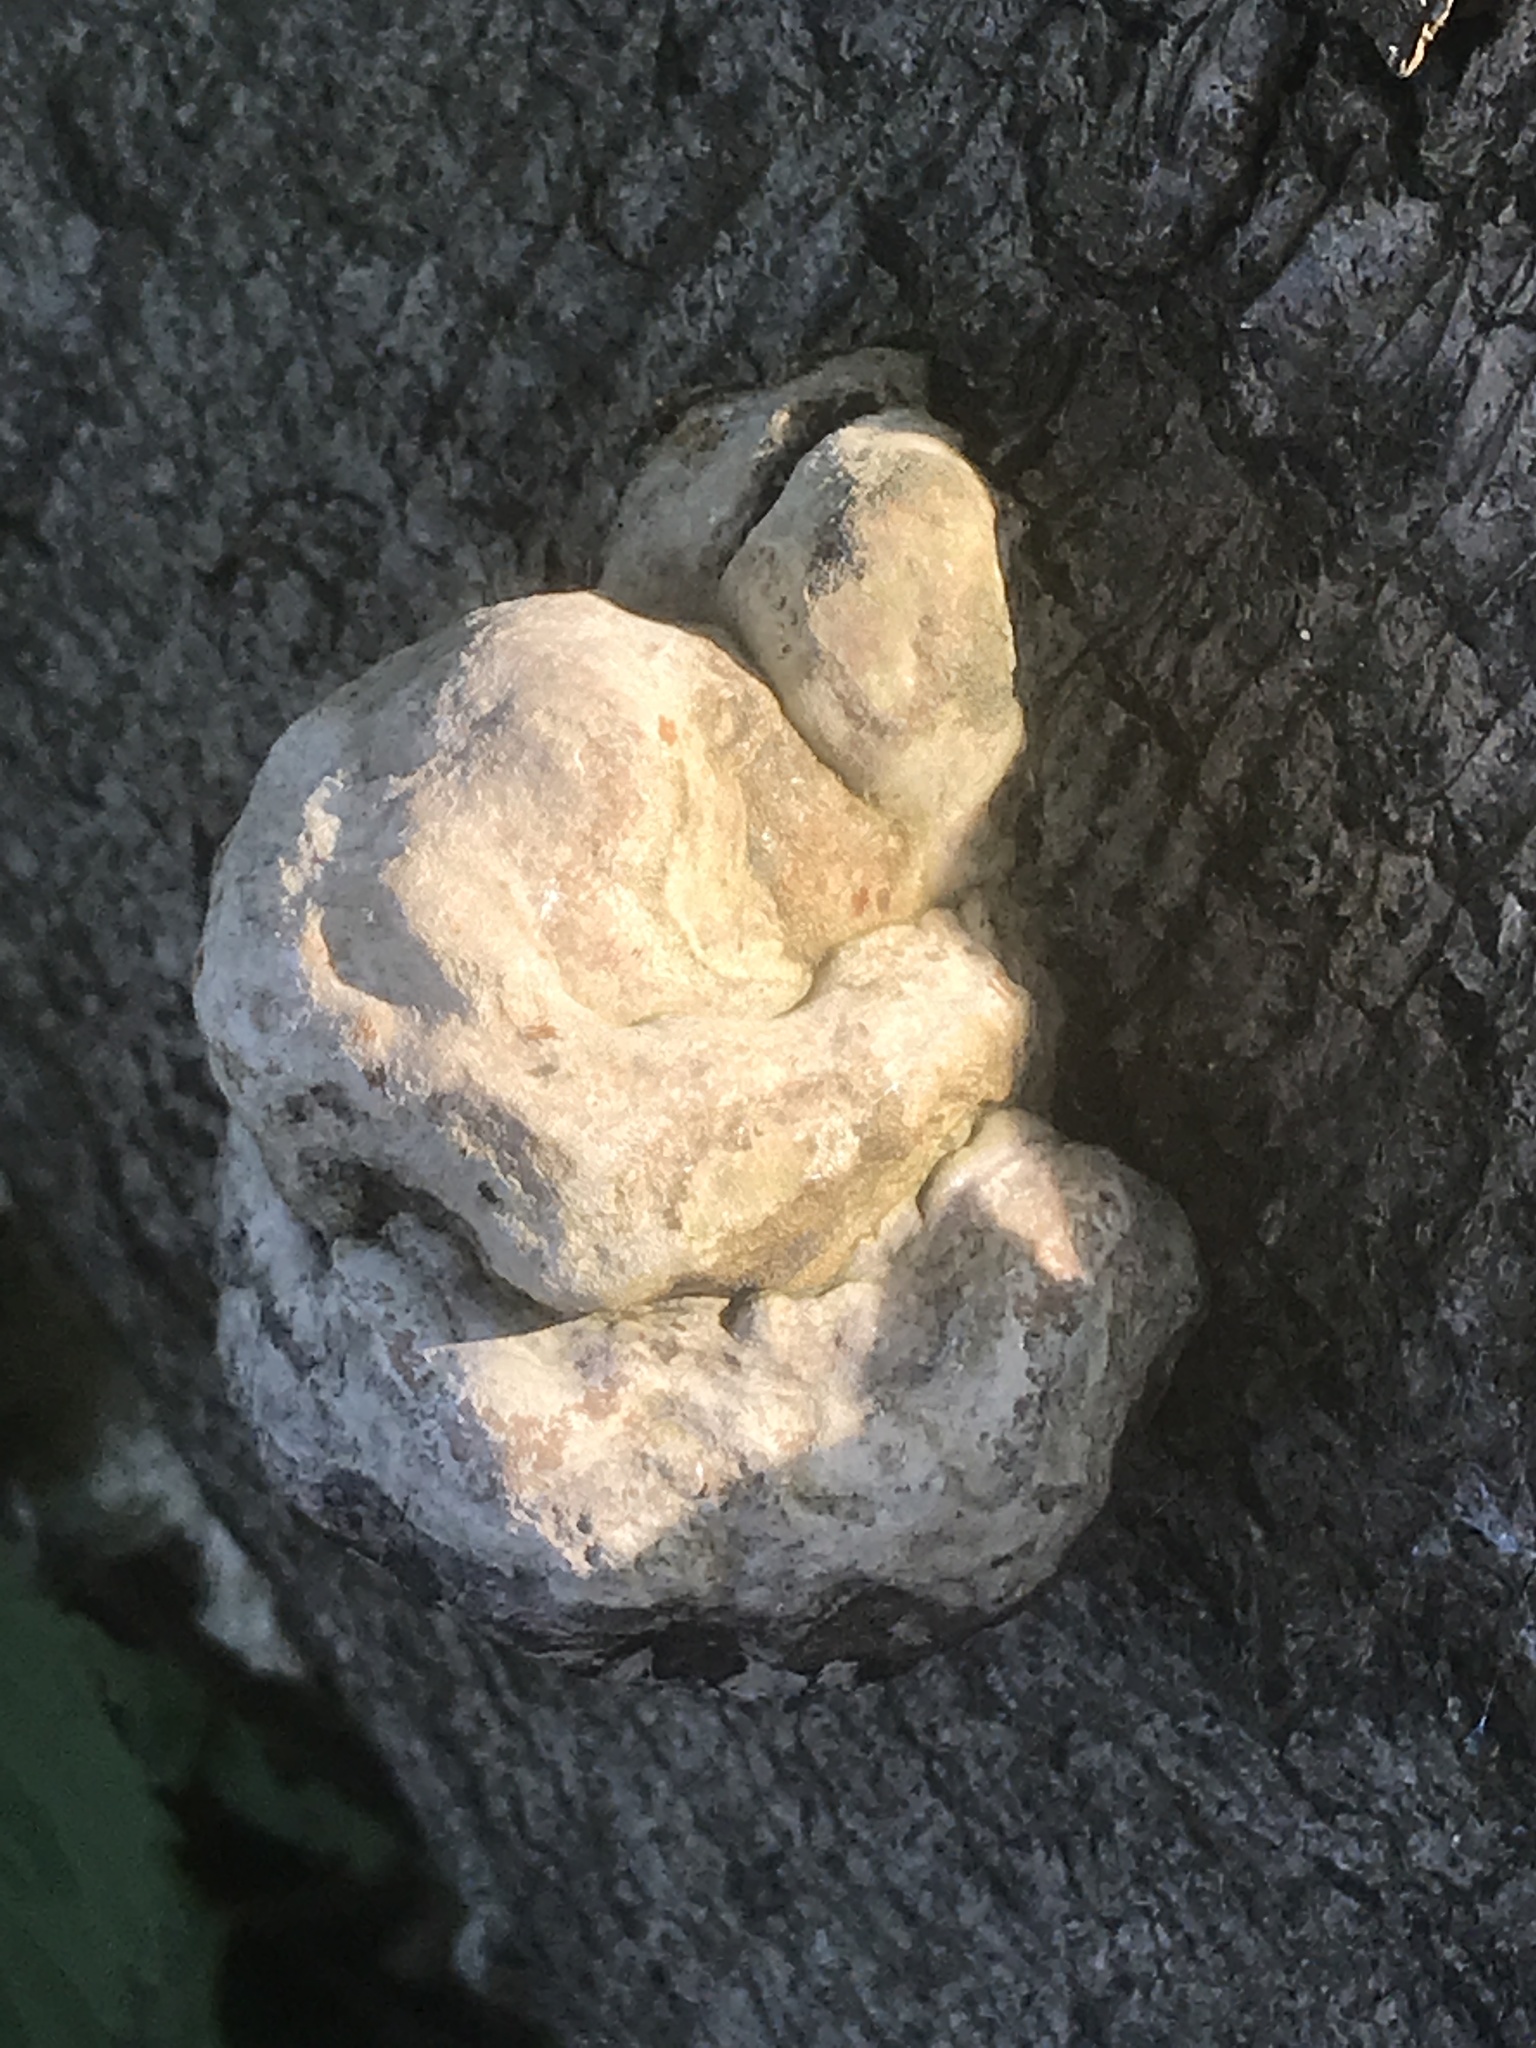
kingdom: Fungi
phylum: Basidiomycota
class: Agaricomycetes
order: Polyporales
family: Polyporaceae
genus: Fomes
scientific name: Fomes fomentarius
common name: Hoof fungus
